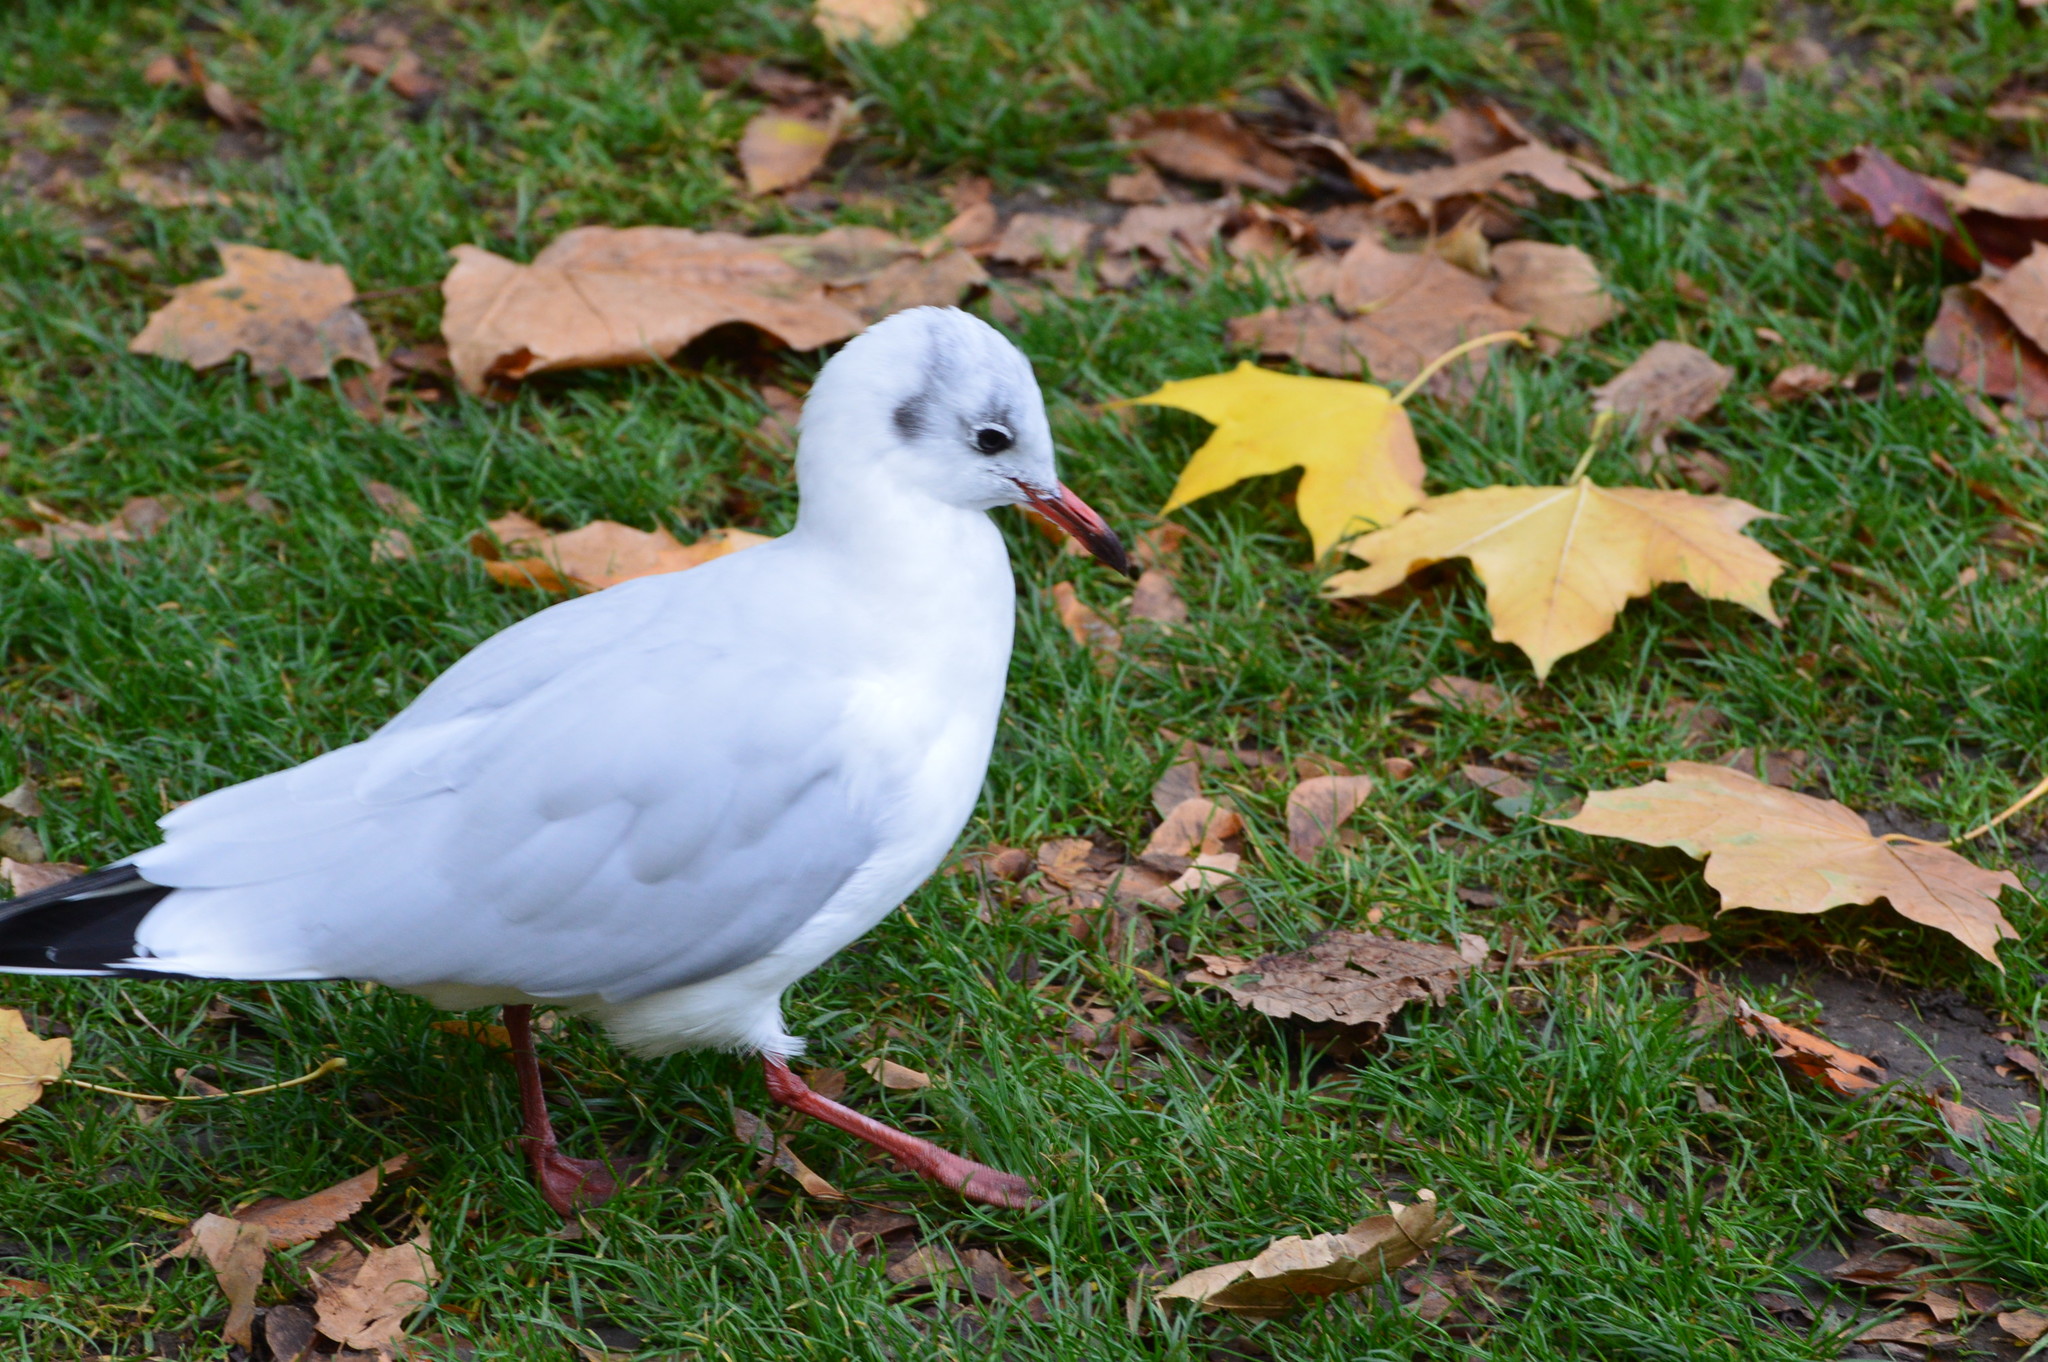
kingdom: Animalia
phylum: Chordata
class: Aves
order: Charadriiformes
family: Laridae
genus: Chroicocephalus
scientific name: Chroicocephalus ridibundus
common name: Black-headed gull
